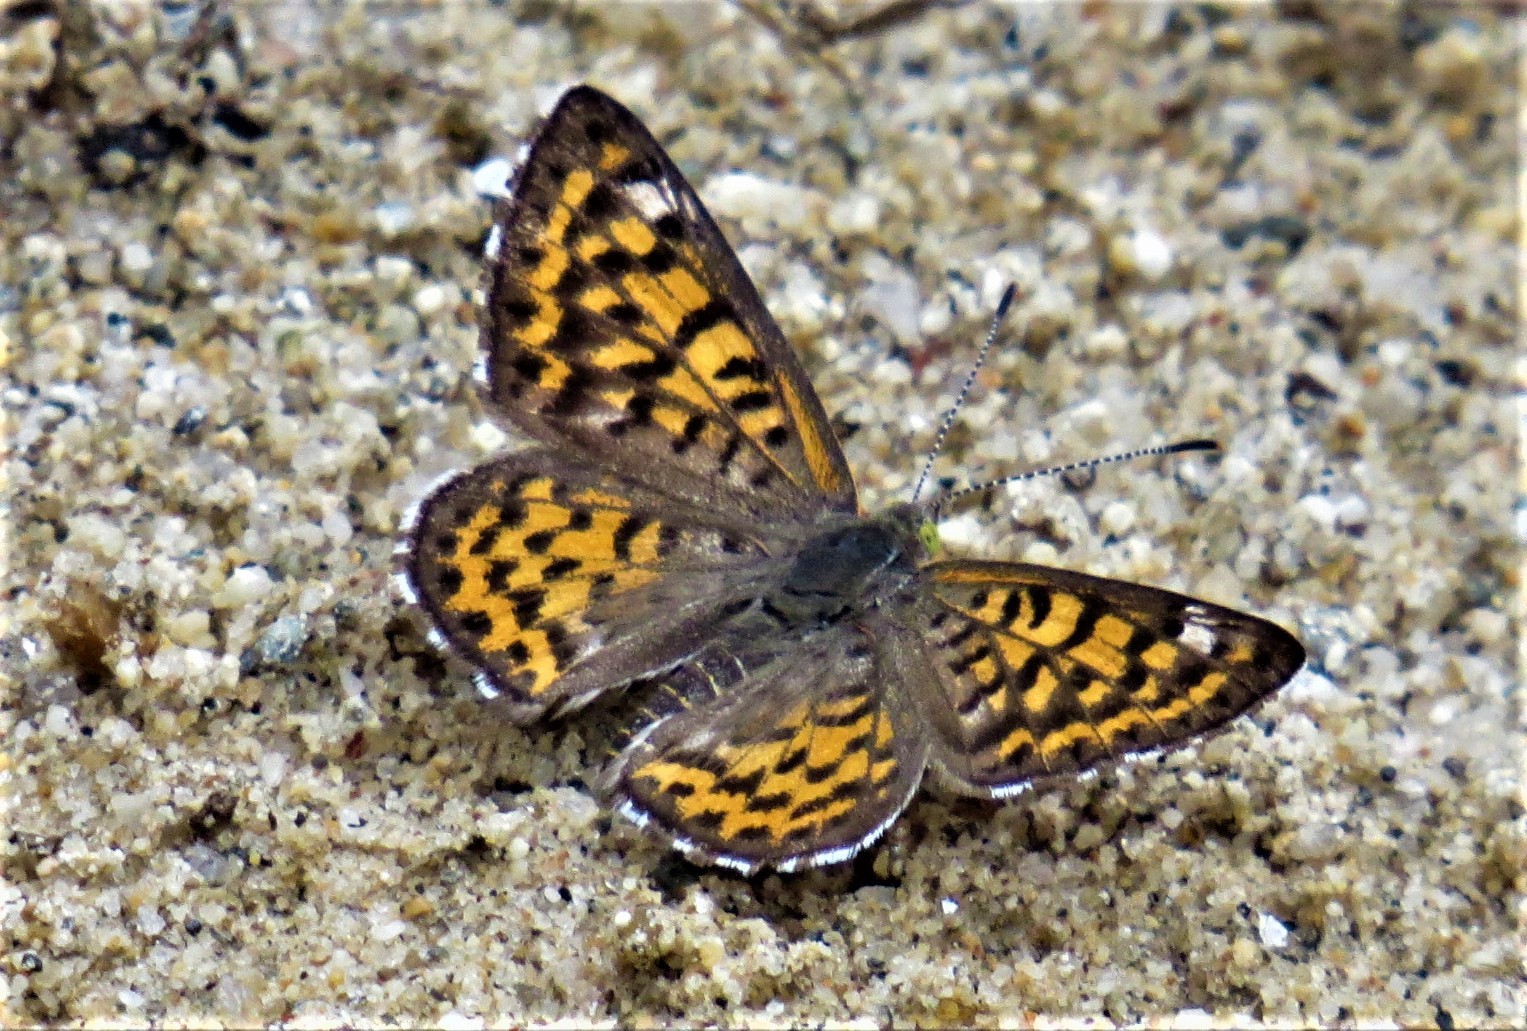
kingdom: Animalia
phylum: Arthropoda
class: Insecta
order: Lepidoptera
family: Riodinidae
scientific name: Riodinidae
